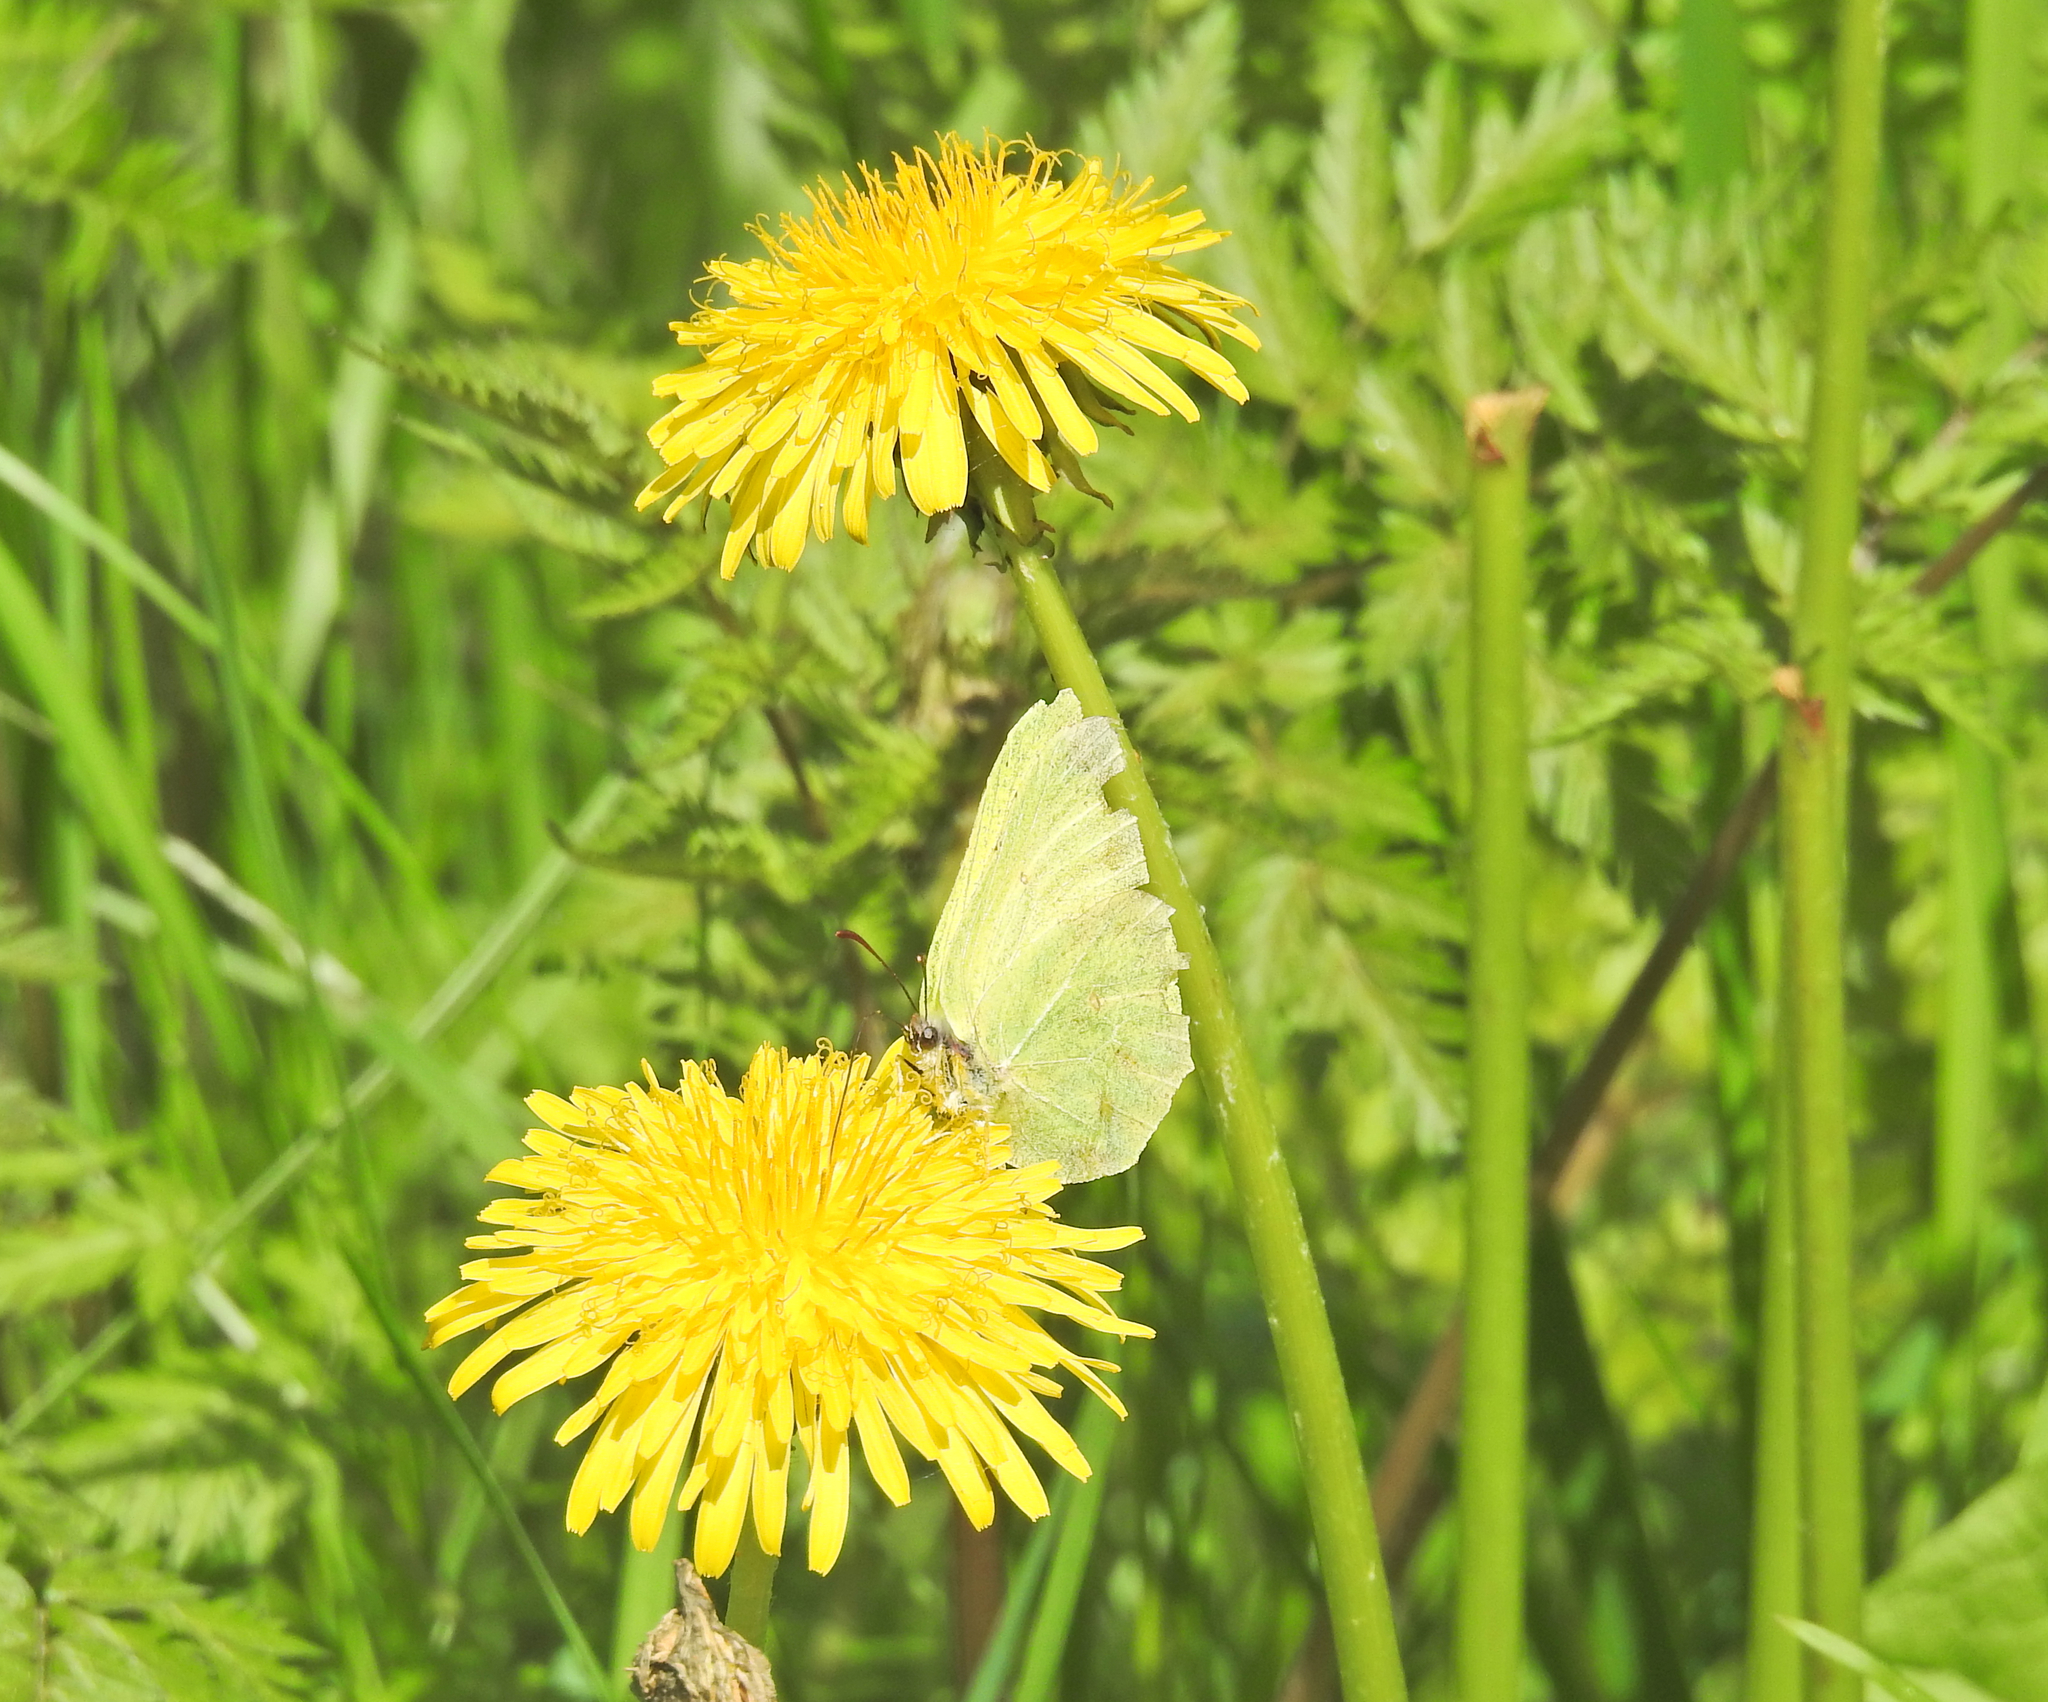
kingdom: Animalia
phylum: Arthropoda
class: Insecta
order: Lepidoptera
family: Pieridae
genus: Gonepteryx
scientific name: Gonepteryx rhamni
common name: Brimstone
